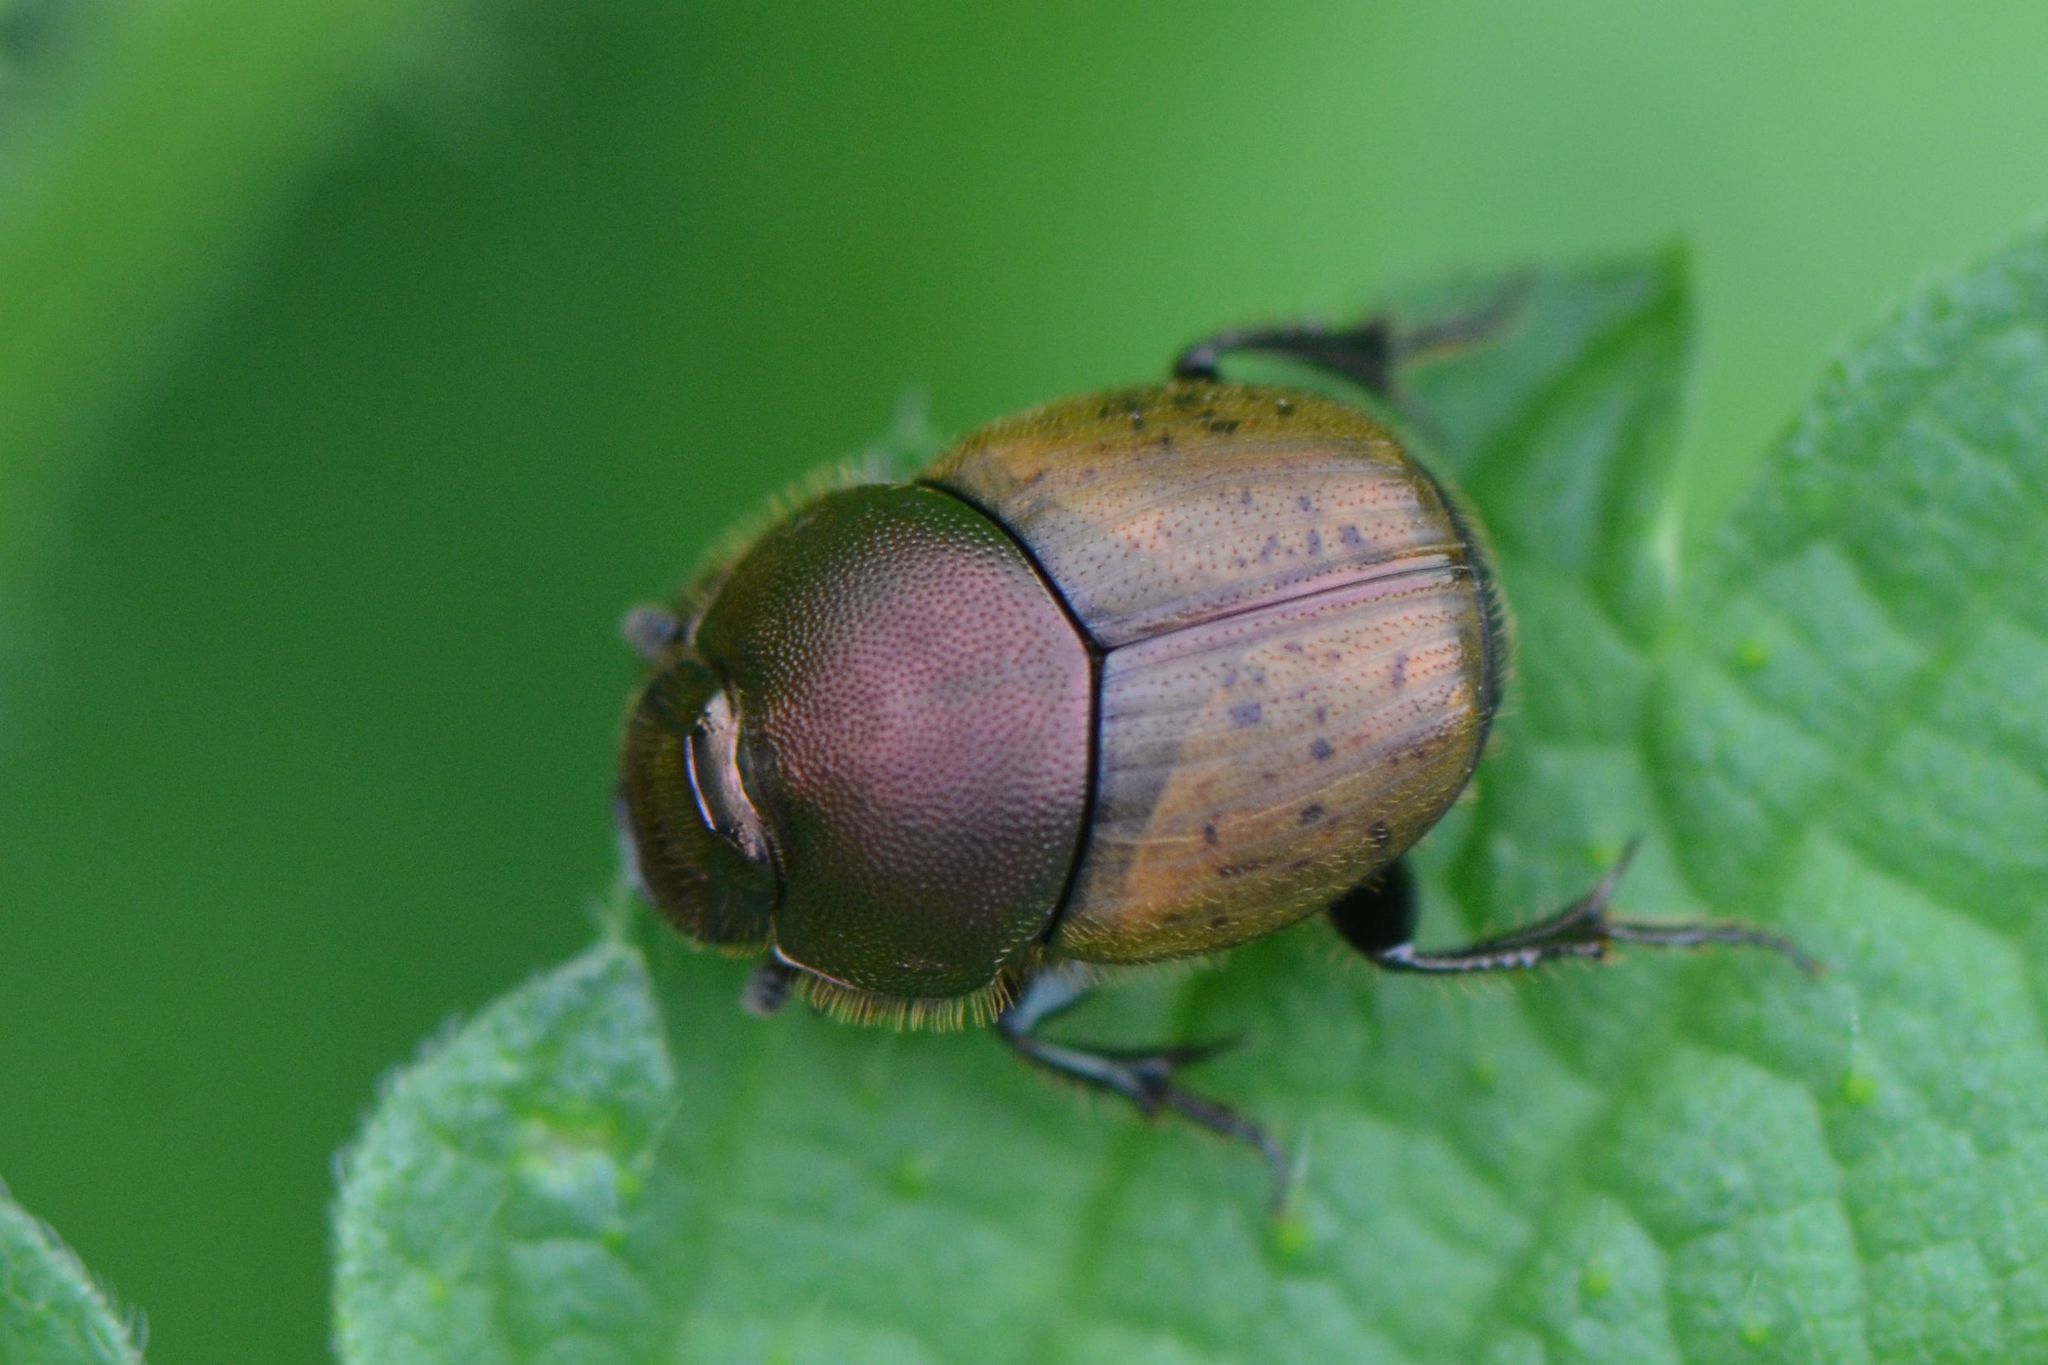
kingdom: Animalia
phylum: Arthropoda
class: Insecta
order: Coleoptera
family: Scarabaeidae
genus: Onthophagus
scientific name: Onthophagus coenobita
